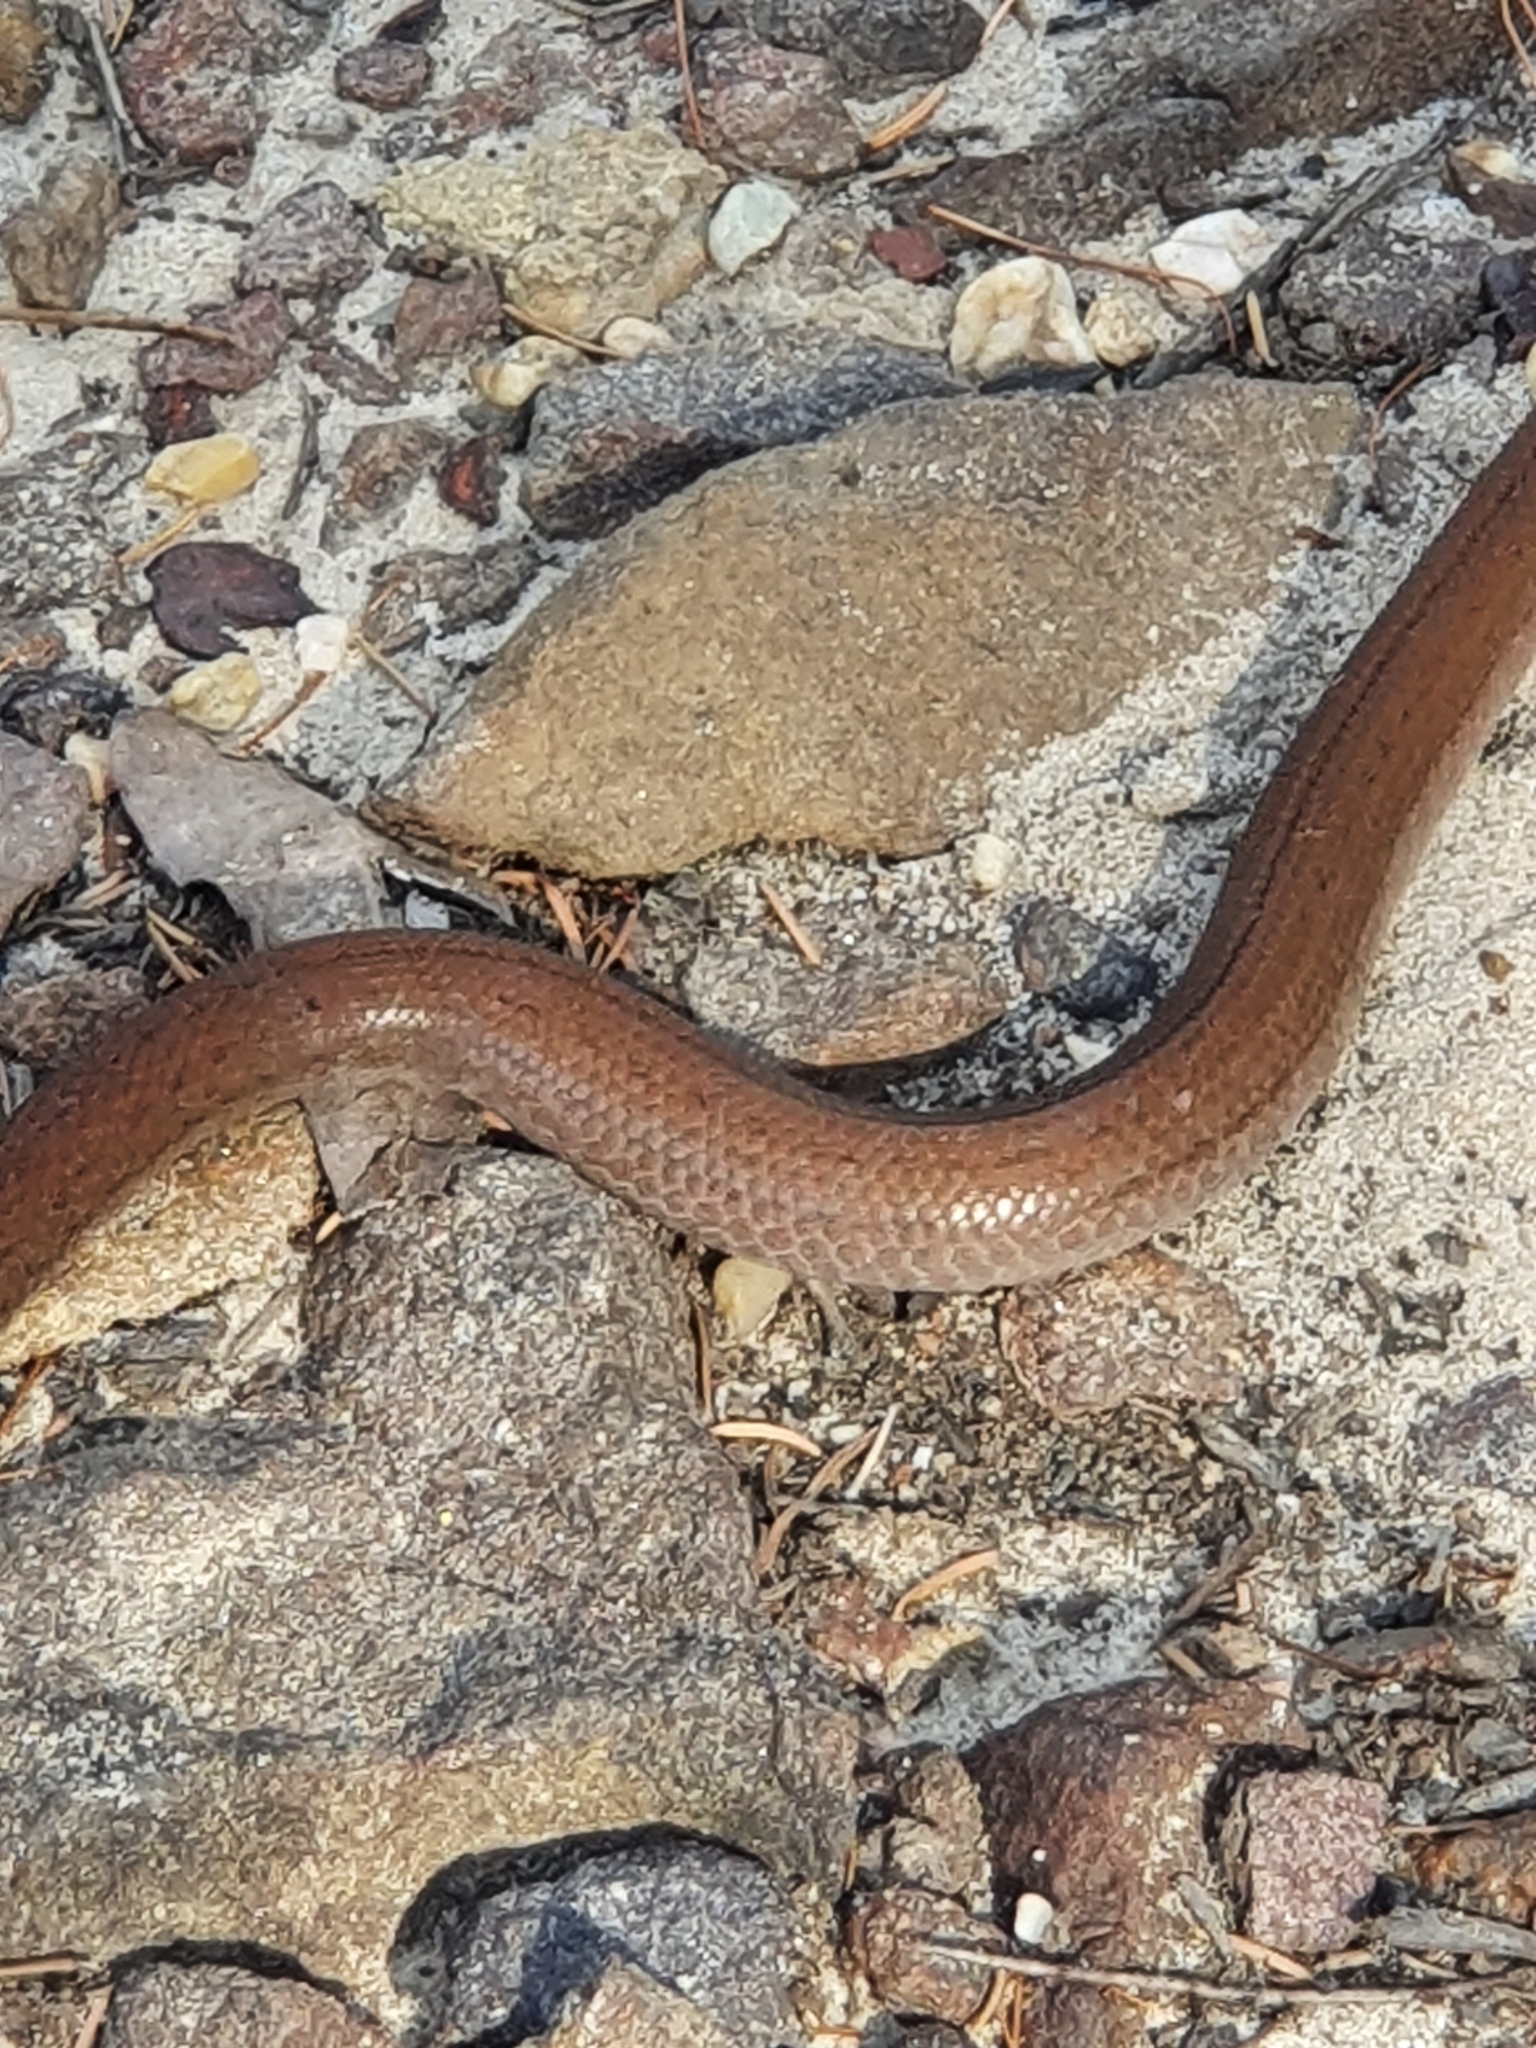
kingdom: Animalia
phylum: Chordata
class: Squamata
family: Pygopodidae
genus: Pygopus
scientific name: Pygopus lepidopodus
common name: Southern scaly-foot
